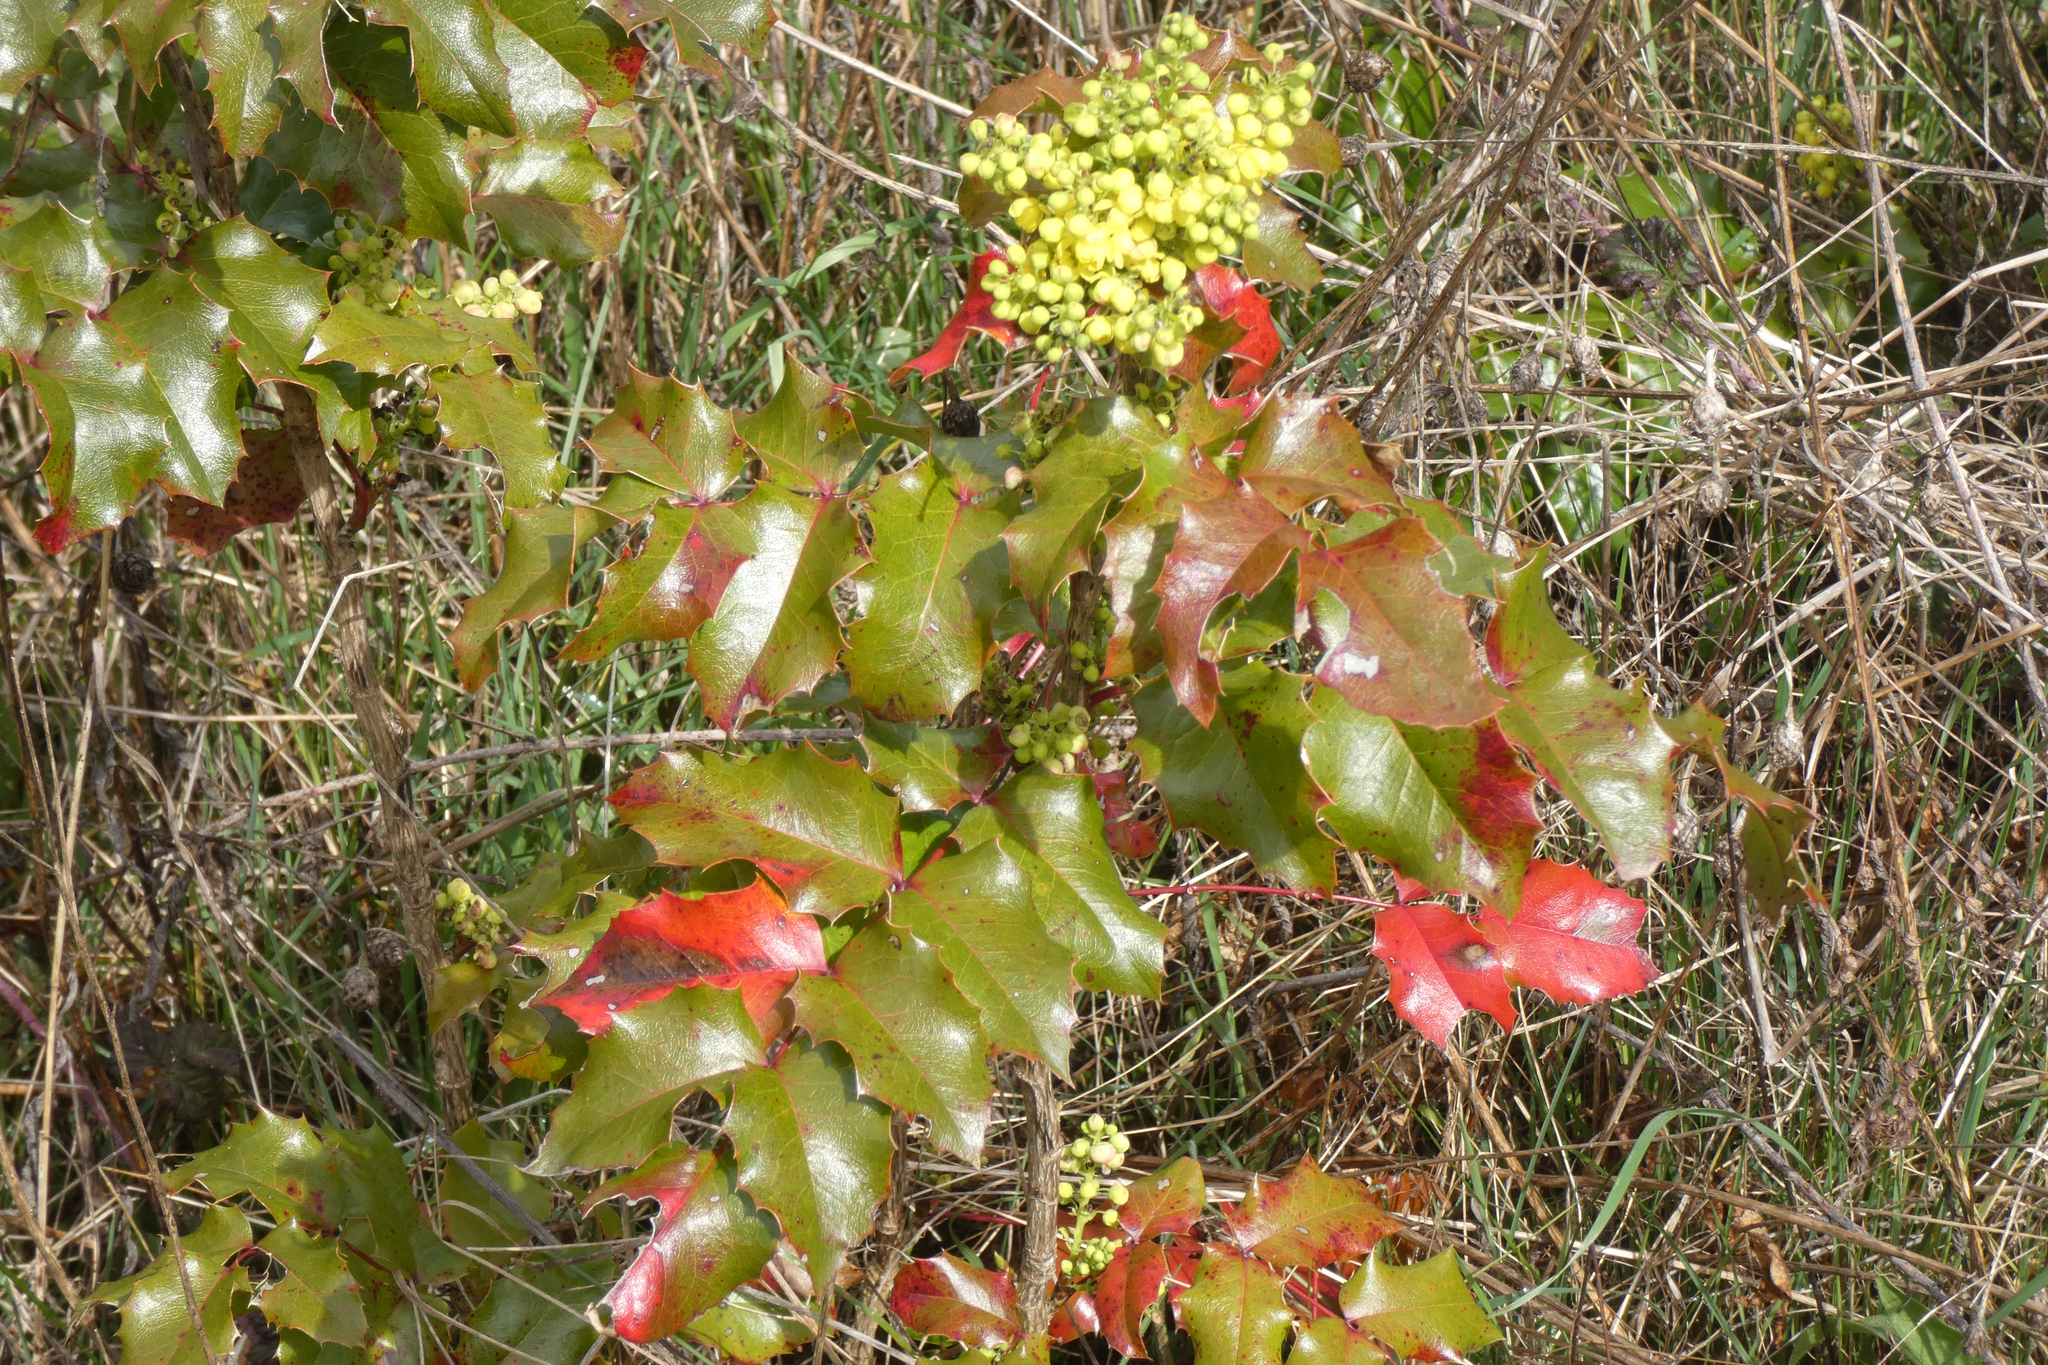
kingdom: Plantae
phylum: Tracheophyta
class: Magnoliopsida
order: Ranunculales
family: Berberidaceae
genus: Mahonia
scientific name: Mahonia aquifolium
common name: Oregon-grape
